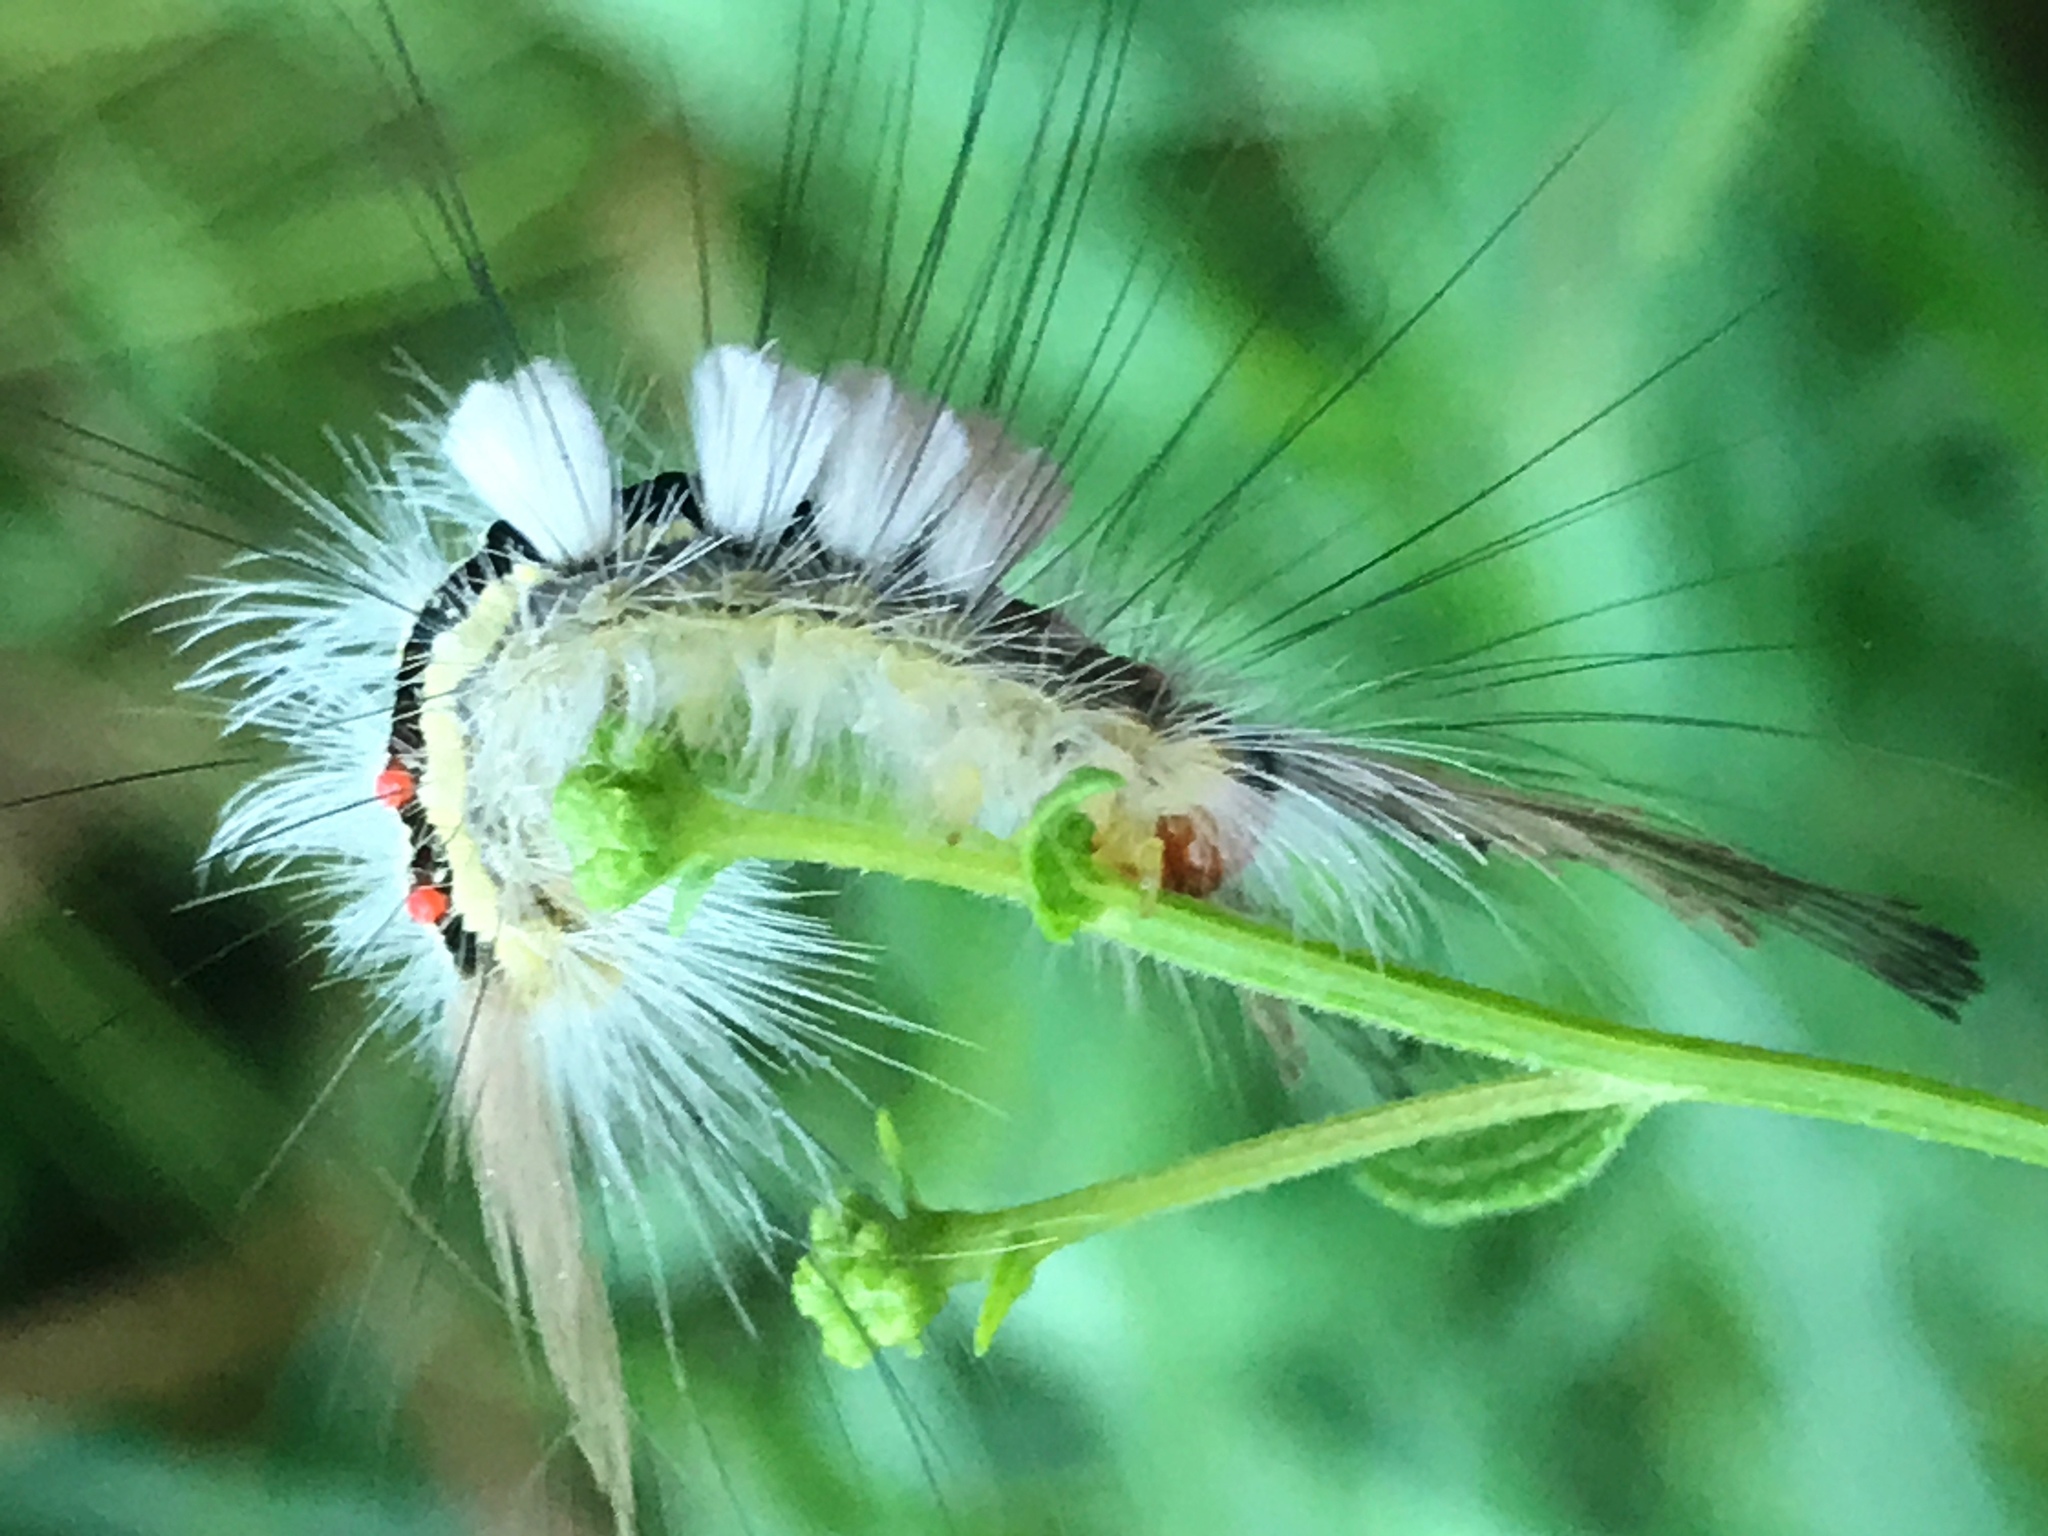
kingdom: Animalia
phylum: Arthropoda
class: Insecta
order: Lepidoptera
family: Erebidae
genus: Orgyia
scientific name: Orgyia leucostigma
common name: White-marked tussock moth
